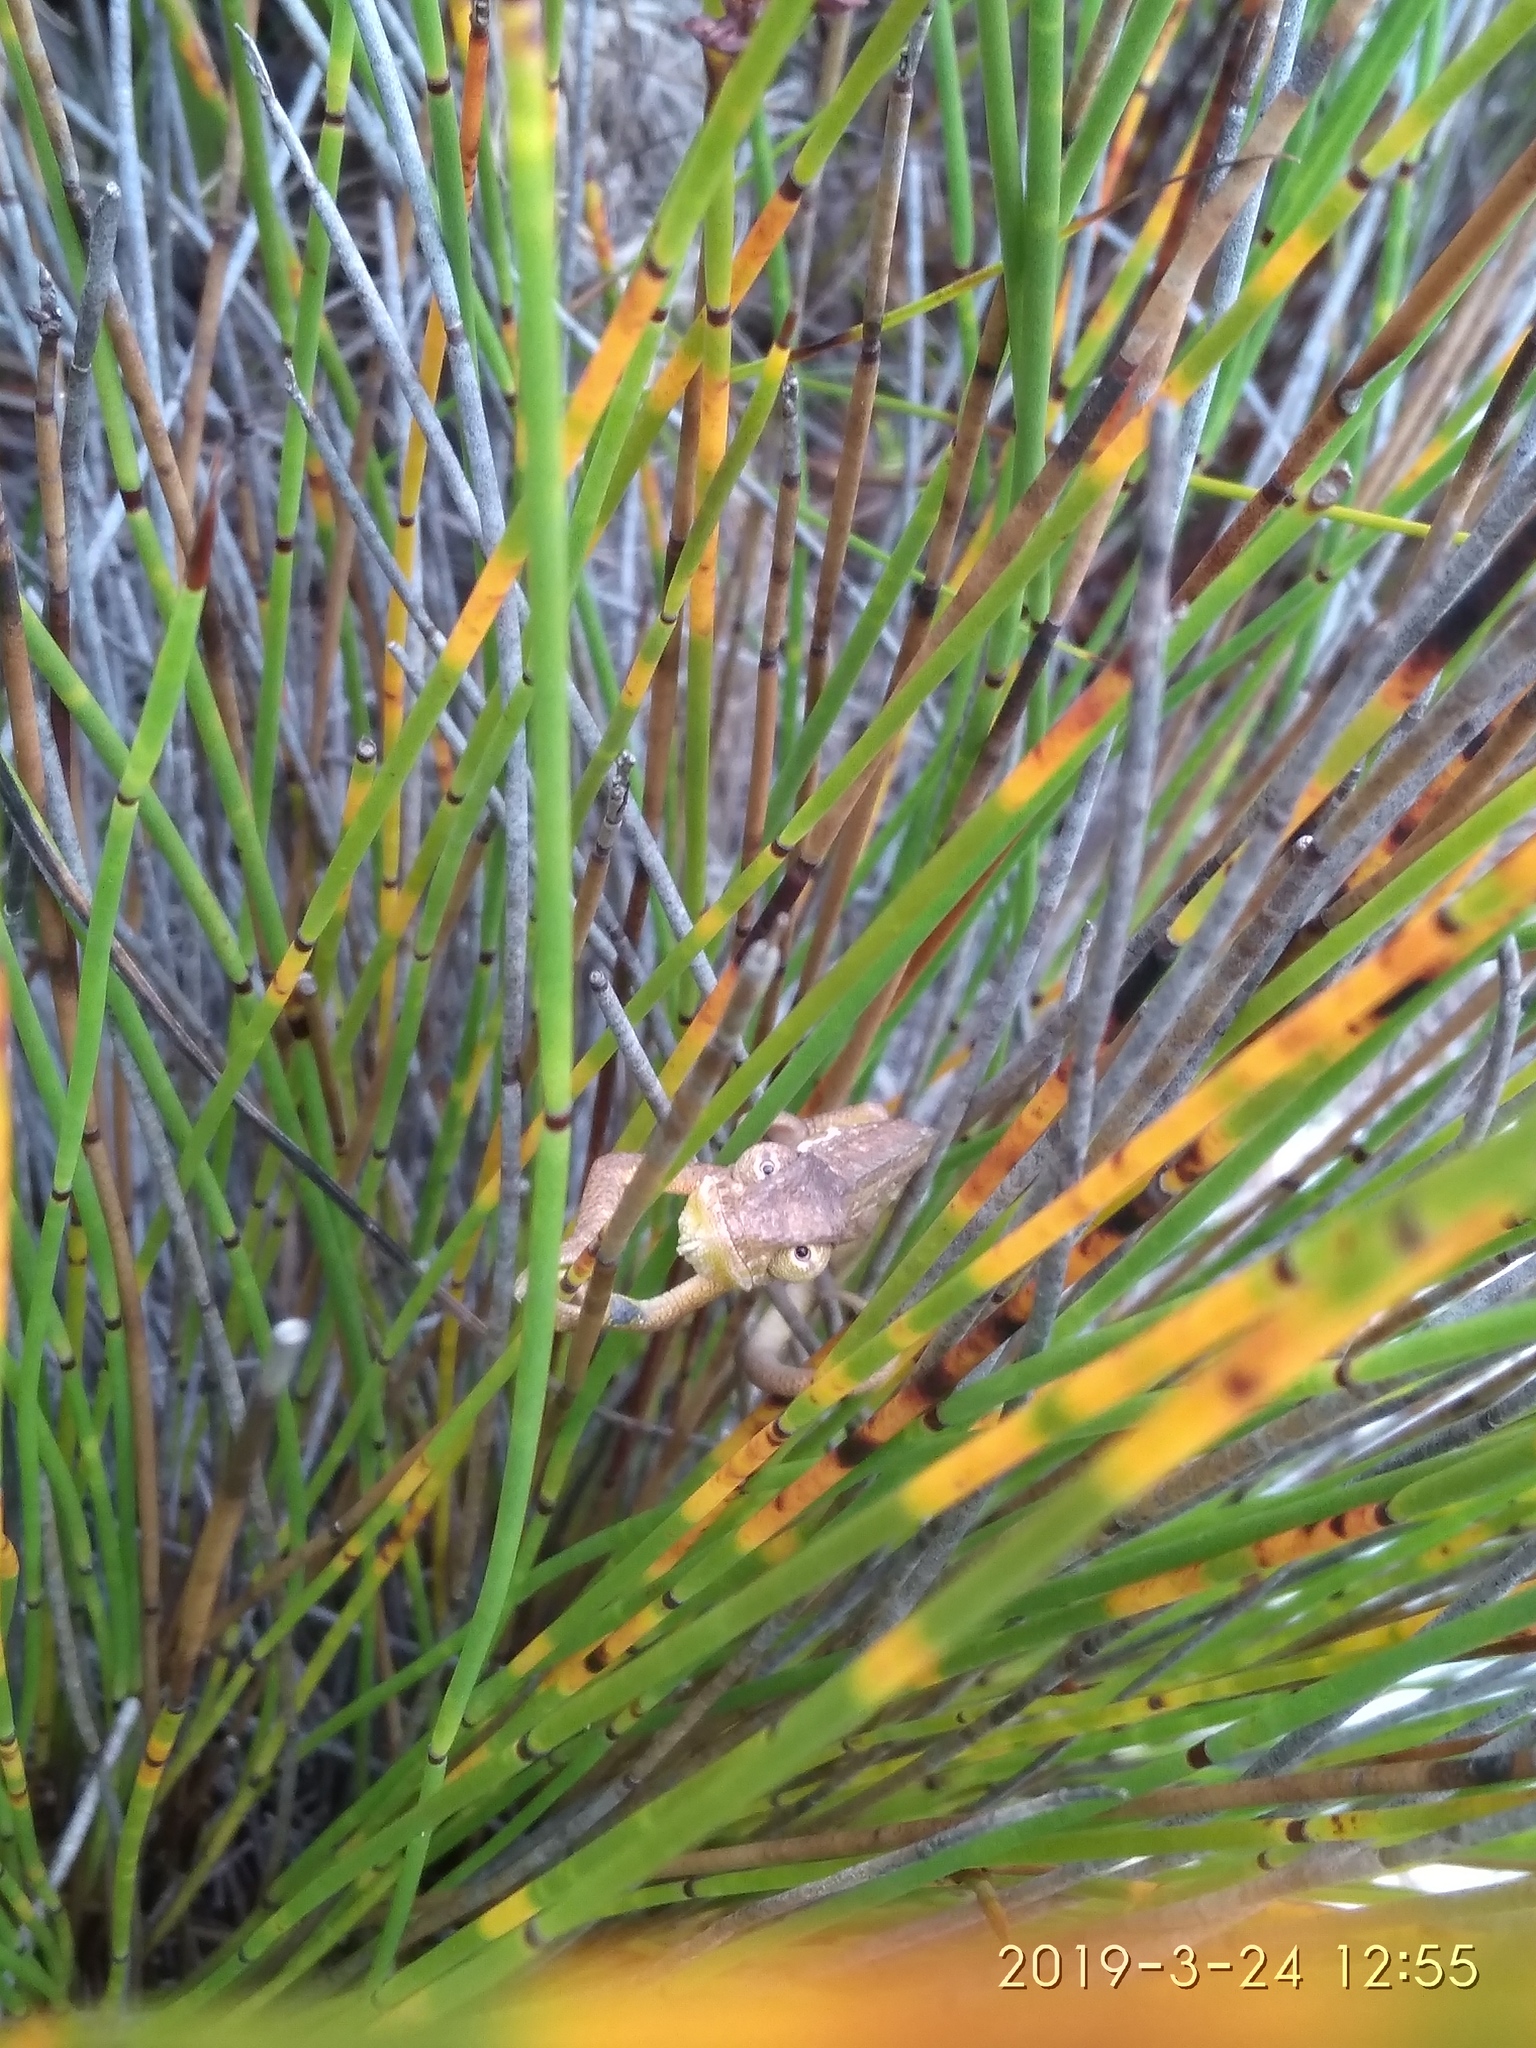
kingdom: Animalia
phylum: Chordata
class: Squamata
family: Chamaeleonidae
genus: Bradypodion
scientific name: Bradypodion pumilum
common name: Cape dwarf chameleon
